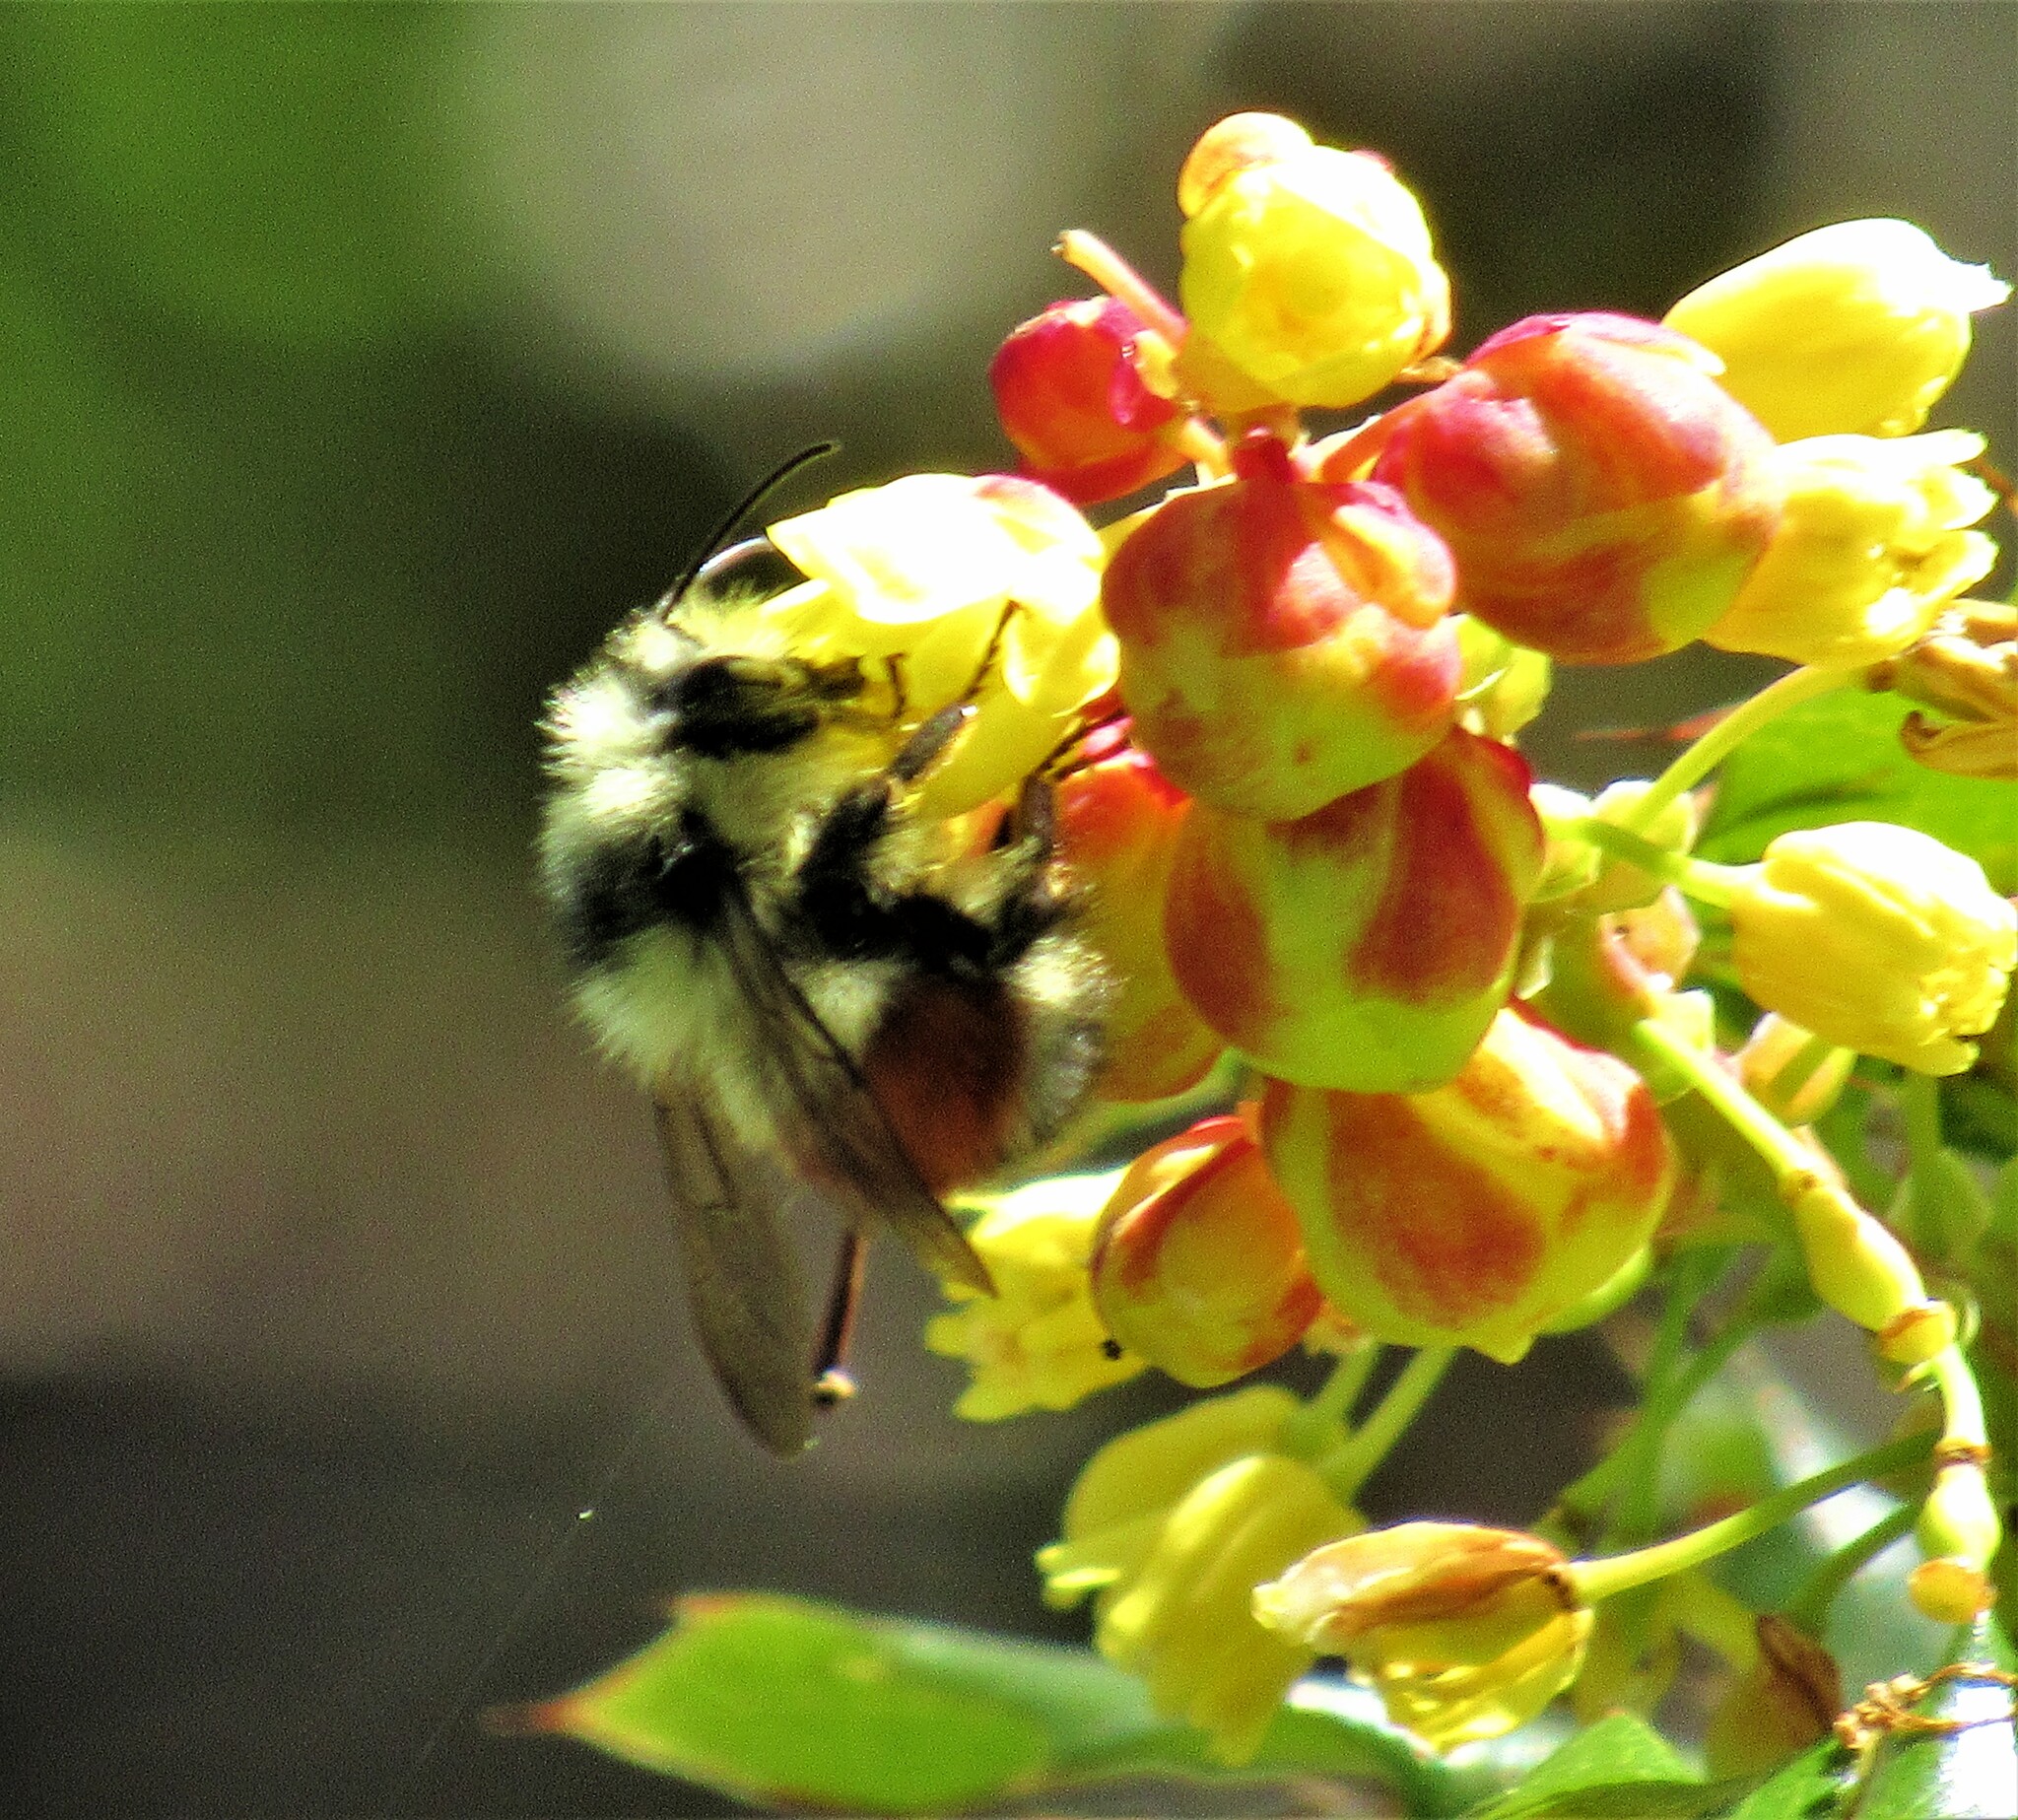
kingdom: Animalia
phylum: Arthropoda
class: Insecta
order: Hymenoptera
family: Apidae
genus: Bombus
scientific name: Bombus melanopygus
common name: Black tail bumble bee
